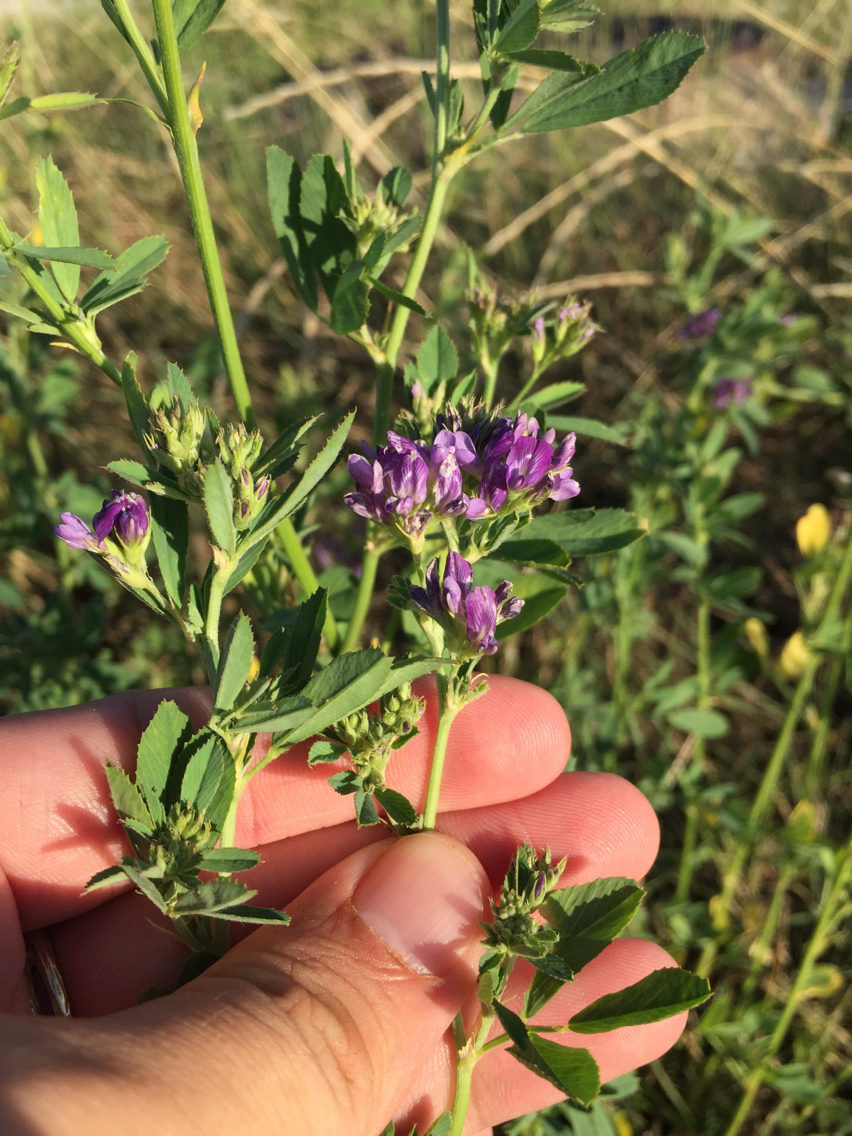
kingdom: Plantae
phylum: Tracheophyta
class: Magnoliopsida
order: Fabales
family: Fabaceae
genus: Medicago
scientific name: Medicago sativa
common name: Alfalfa
